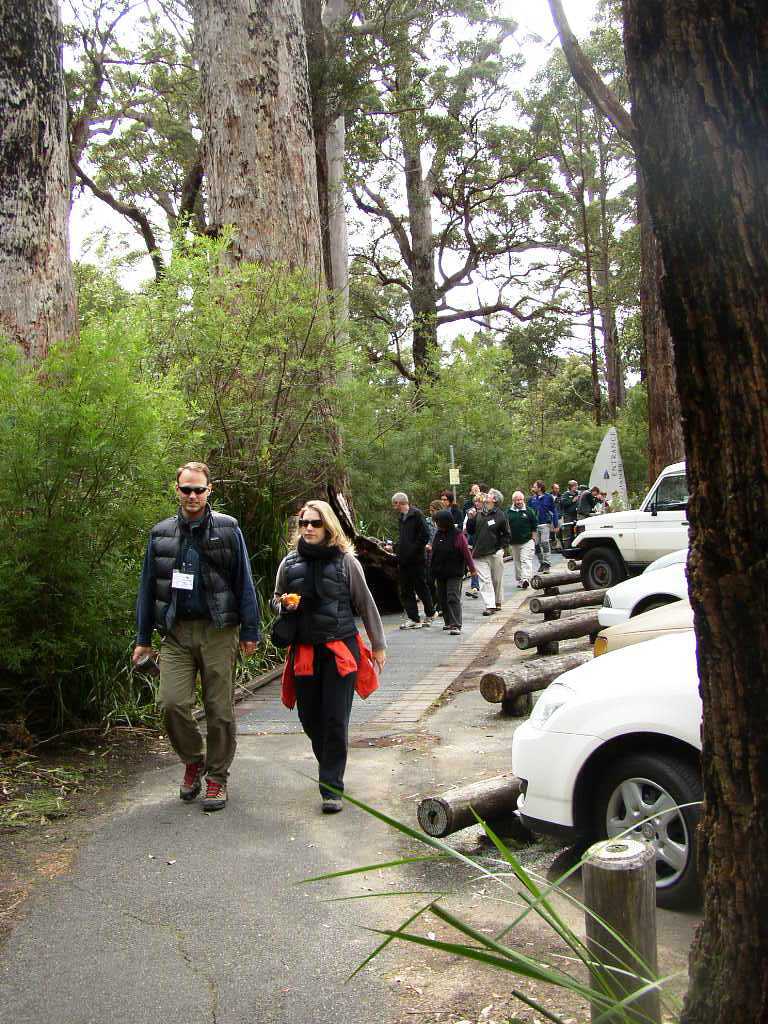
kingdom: Plantae
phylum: Tracheophyta
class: Magnoliopsida
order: Ericales
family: Ericaceae
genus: Leucopogon
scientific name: Leucopogon verticillatus
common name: Tasselshrub
